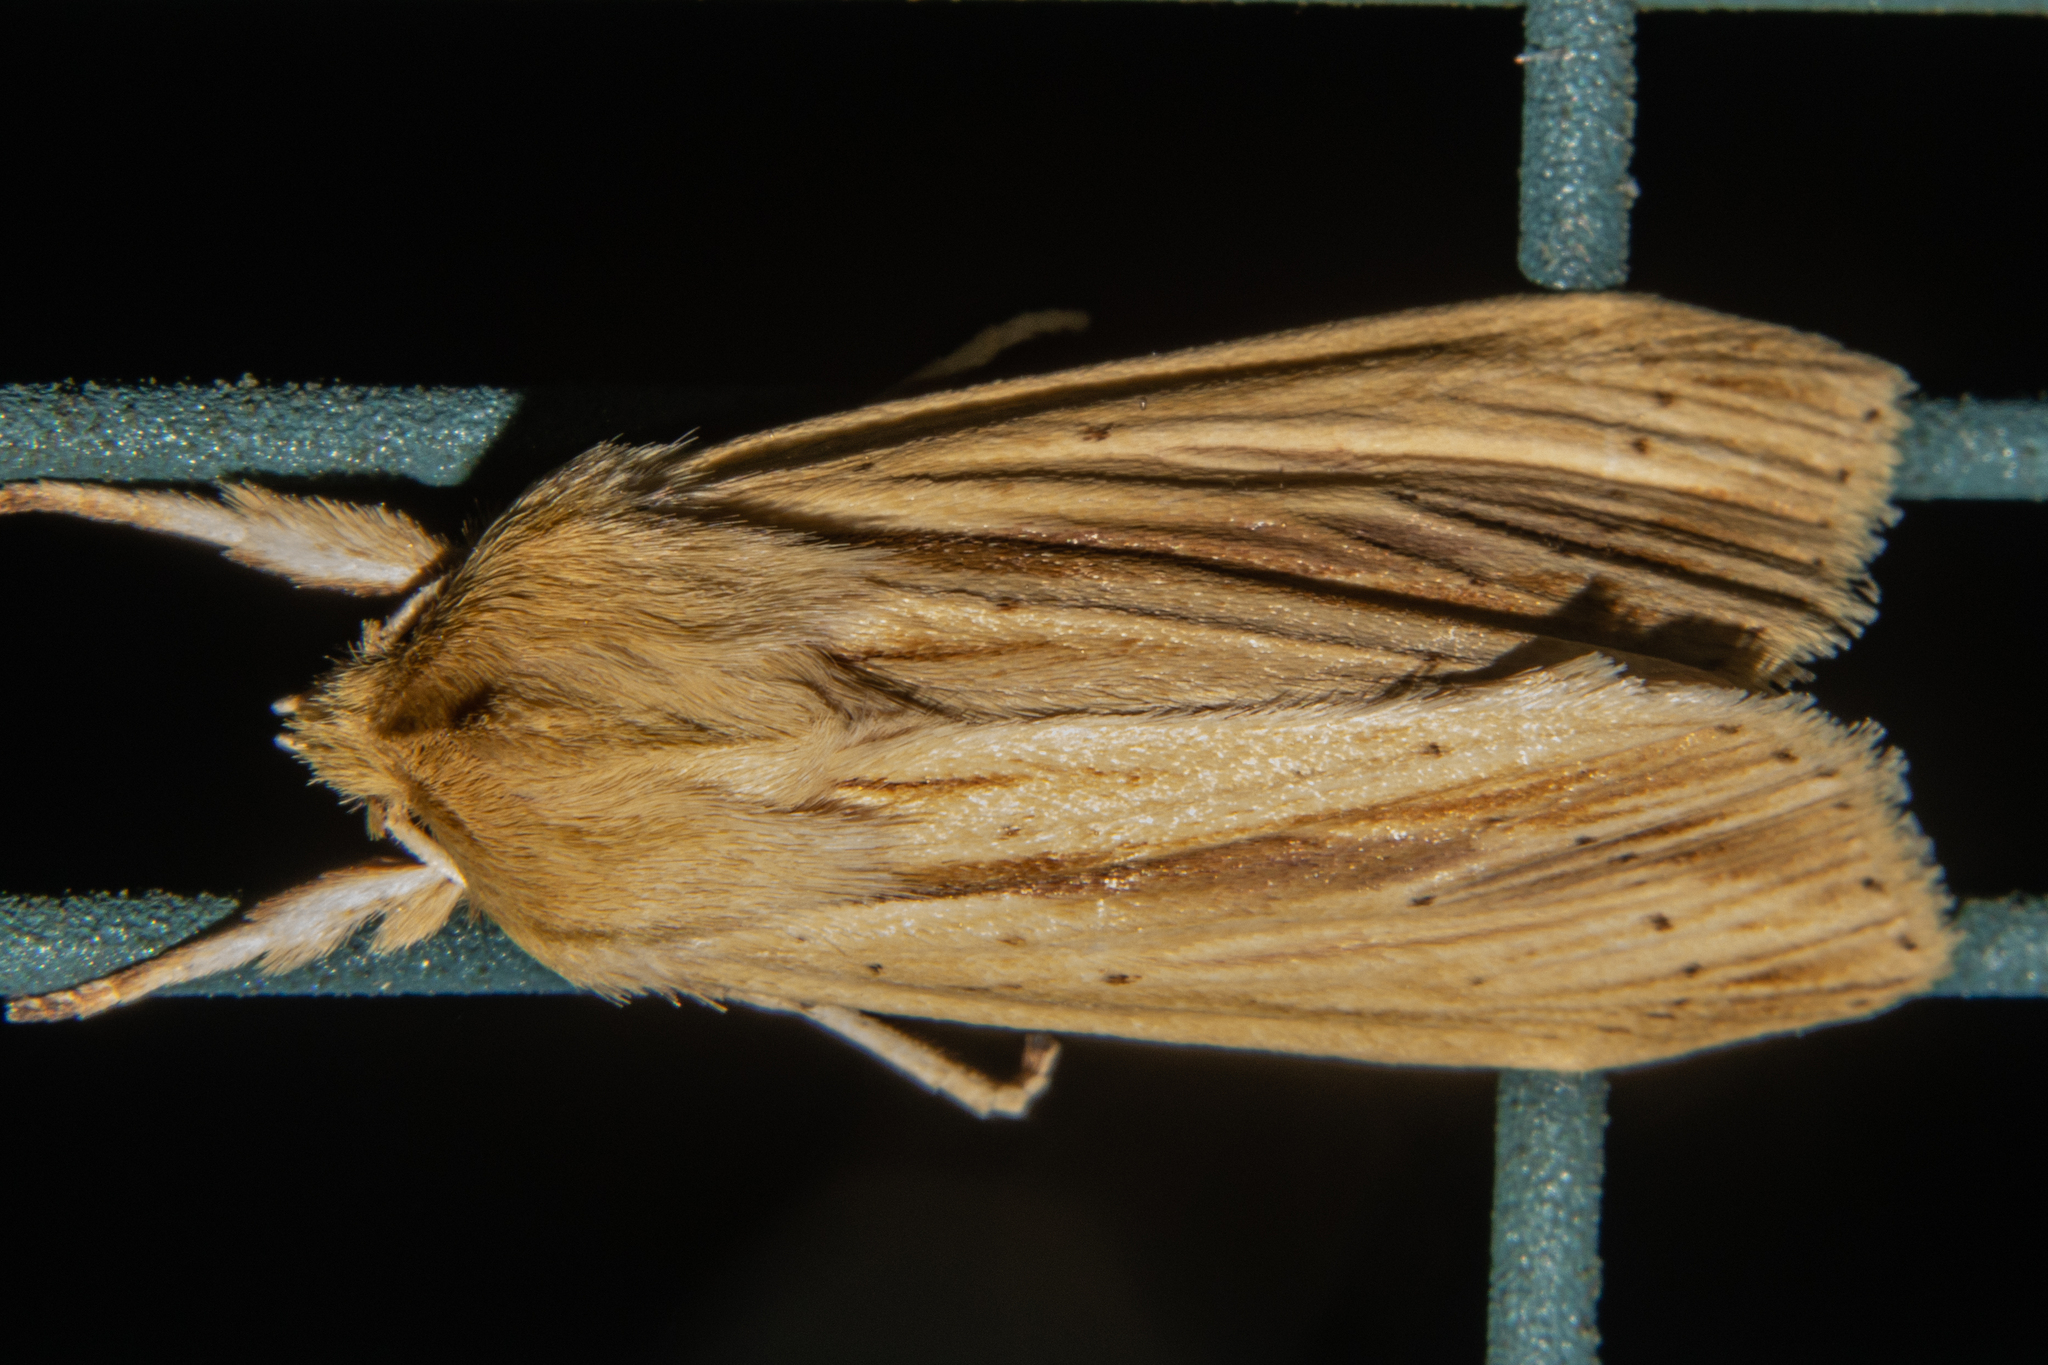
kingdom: Animalia
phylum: Arthropoda
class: Insecta
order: Lepidoptera
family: Noctuidae
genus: Ichneutica
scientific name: Ichneutica sulcana
